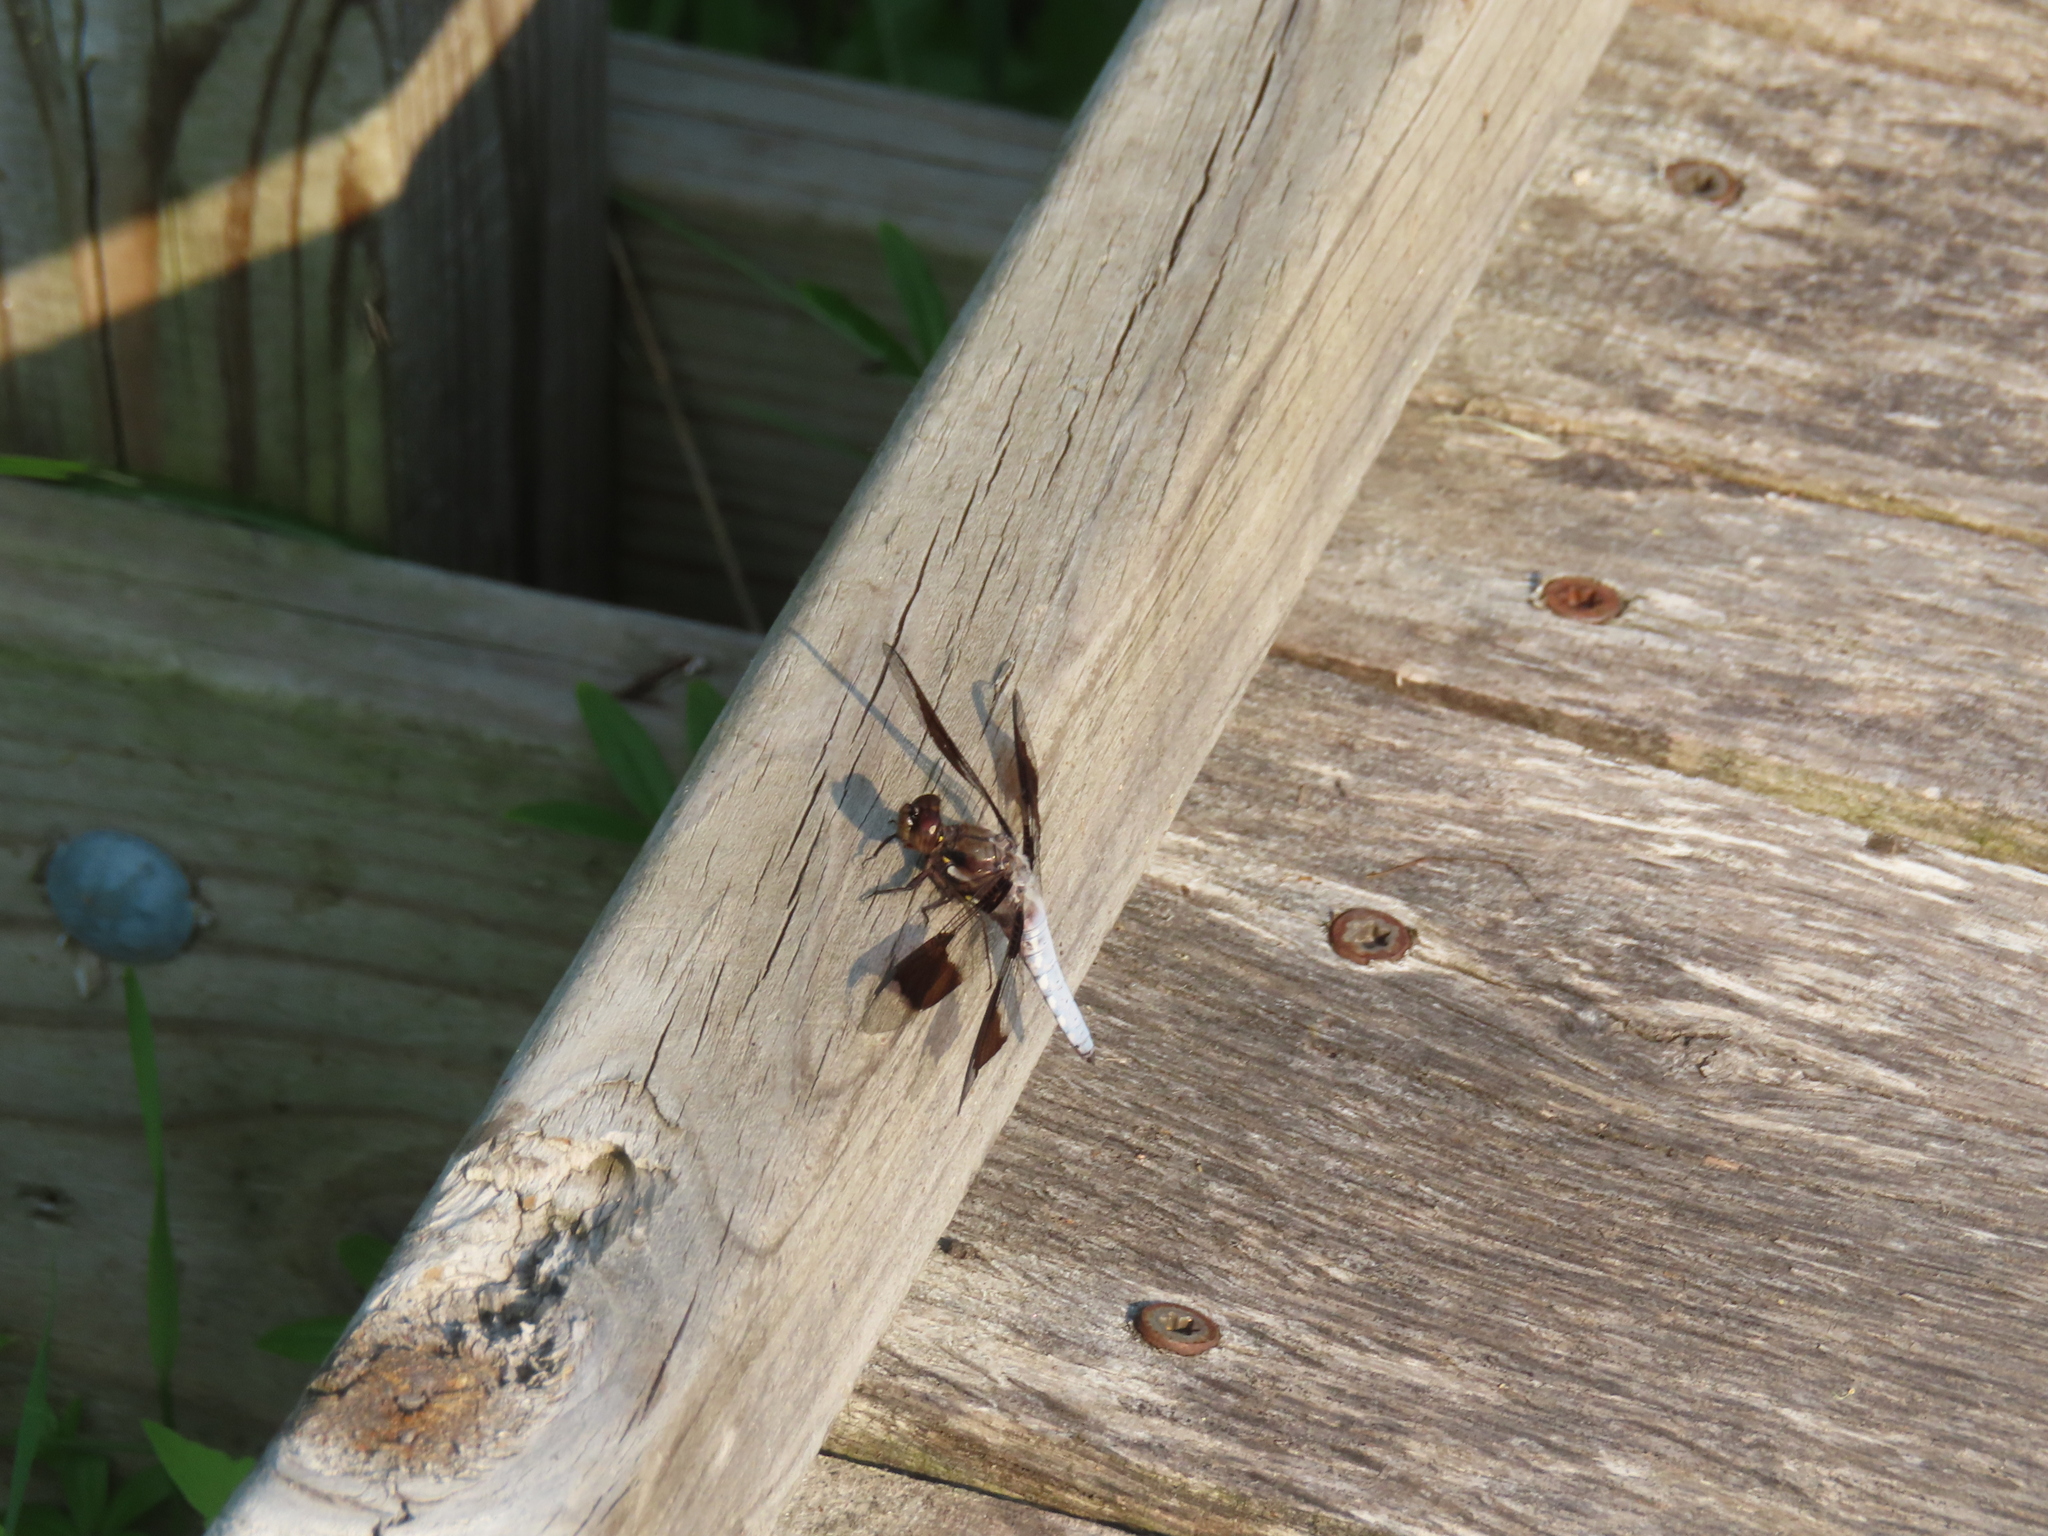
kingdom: Animalia
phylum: Arthropoda
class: Insecta
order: Odonata
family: Libellulidae
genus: Plathemis
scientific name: Plathemis lydia
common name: Common whitetail
